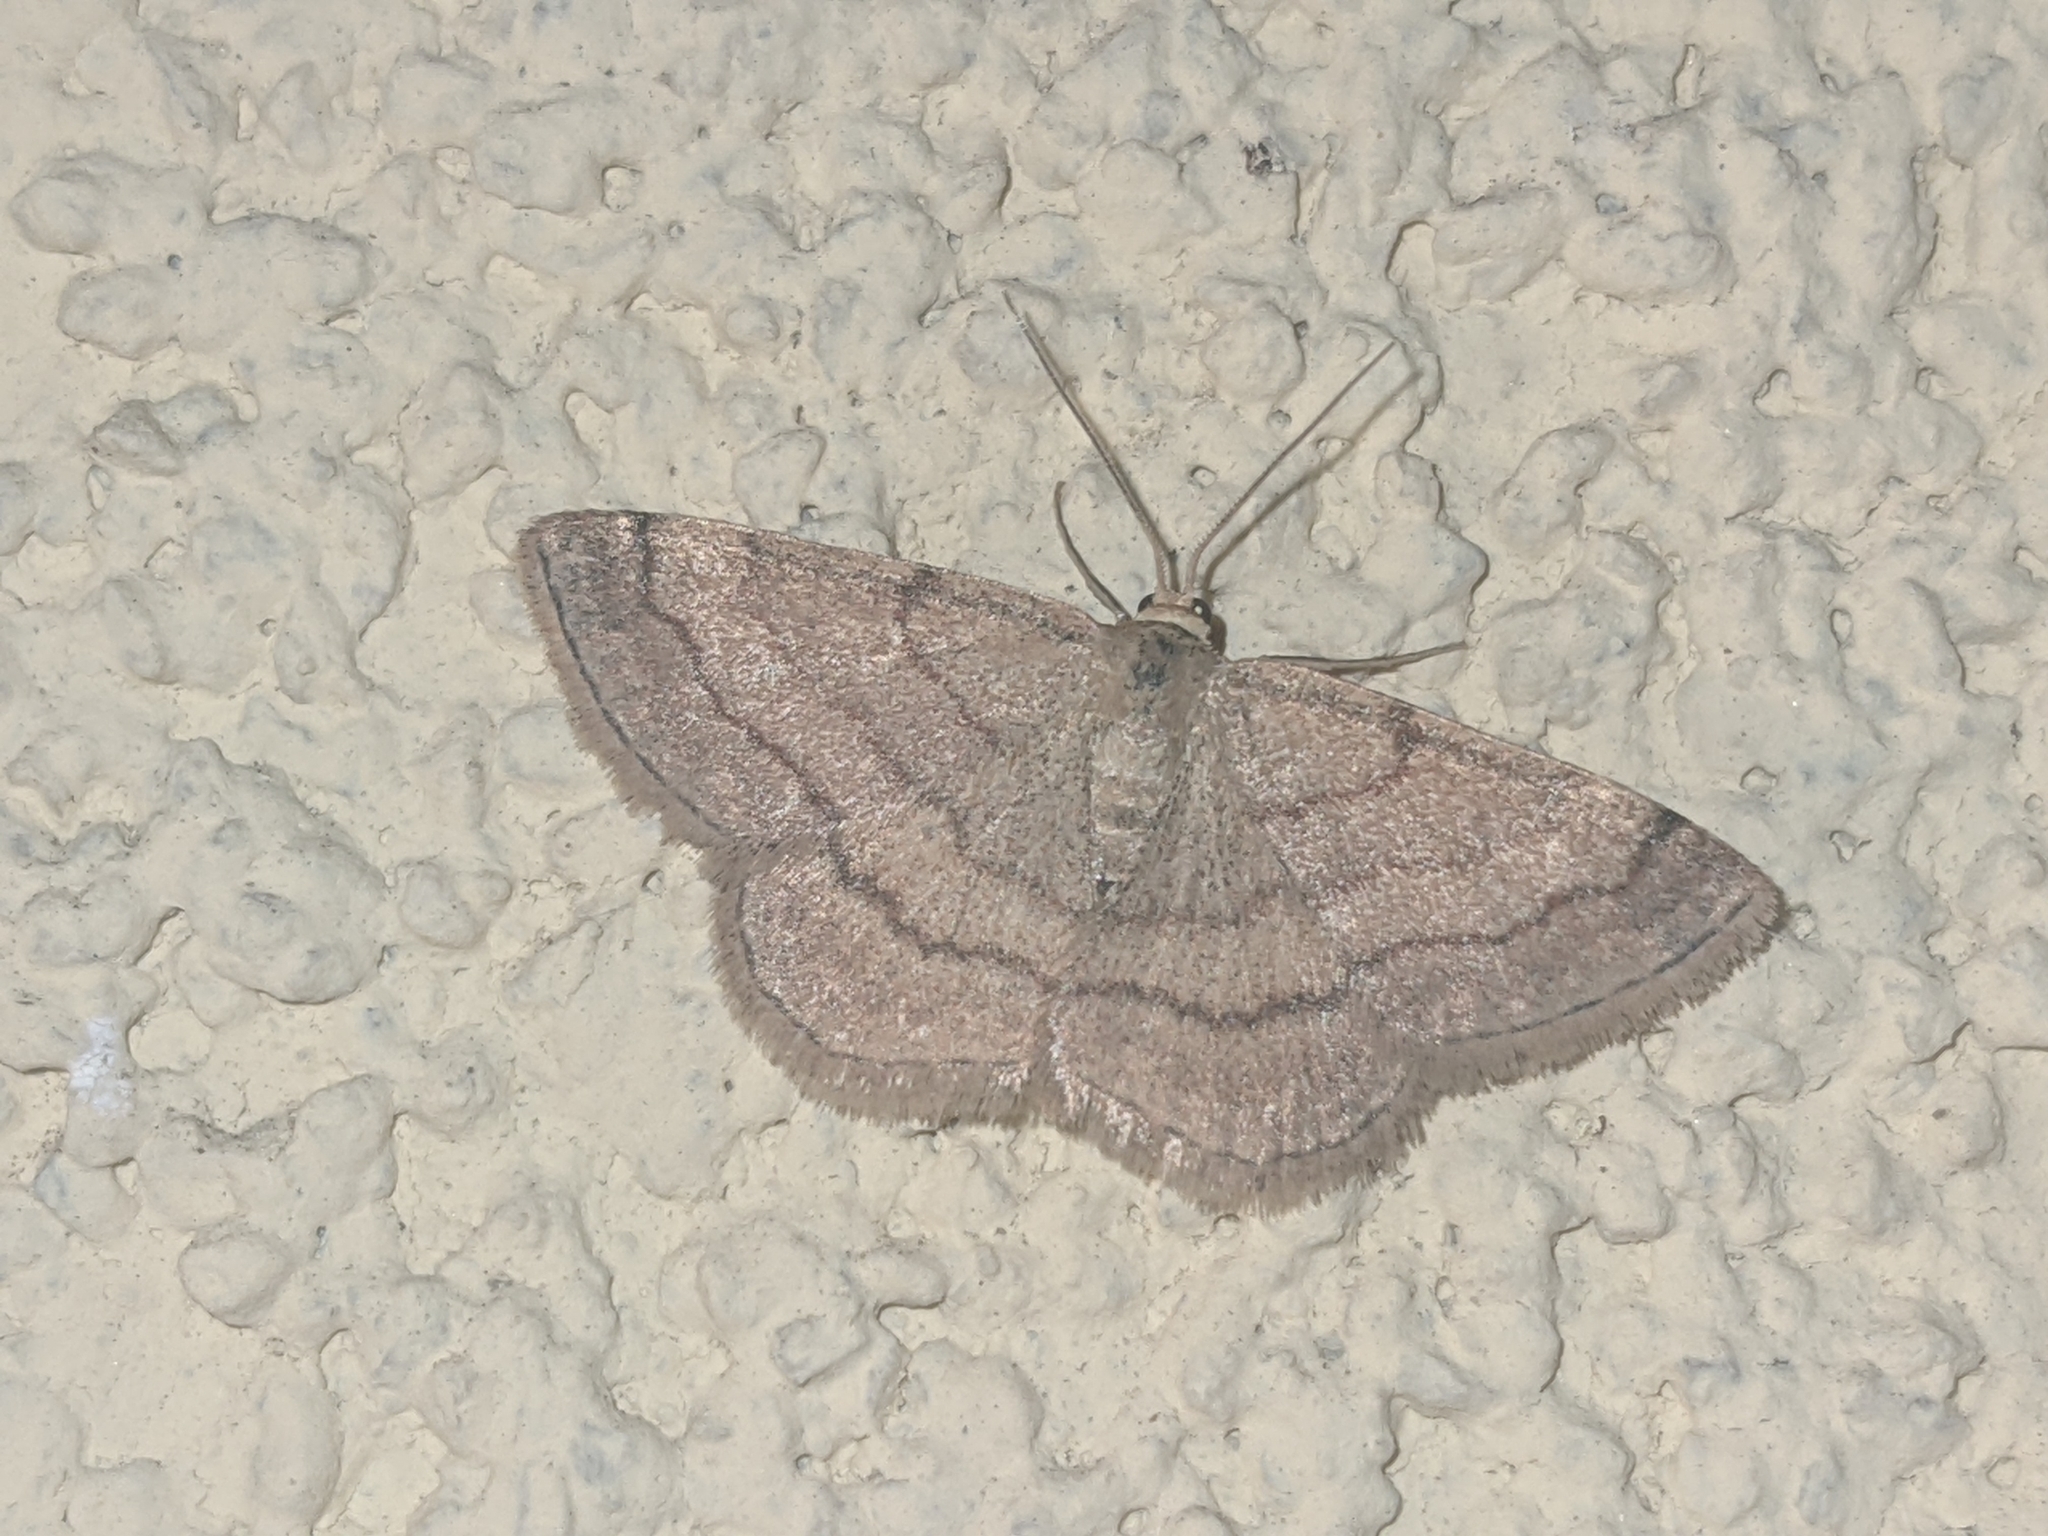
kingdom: Animalia
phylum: Arthropoda
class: Insecta
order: Lepidoptera
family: Geometridae
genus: Scopula
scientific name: Scopula rubiginata
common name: Tawny wave
